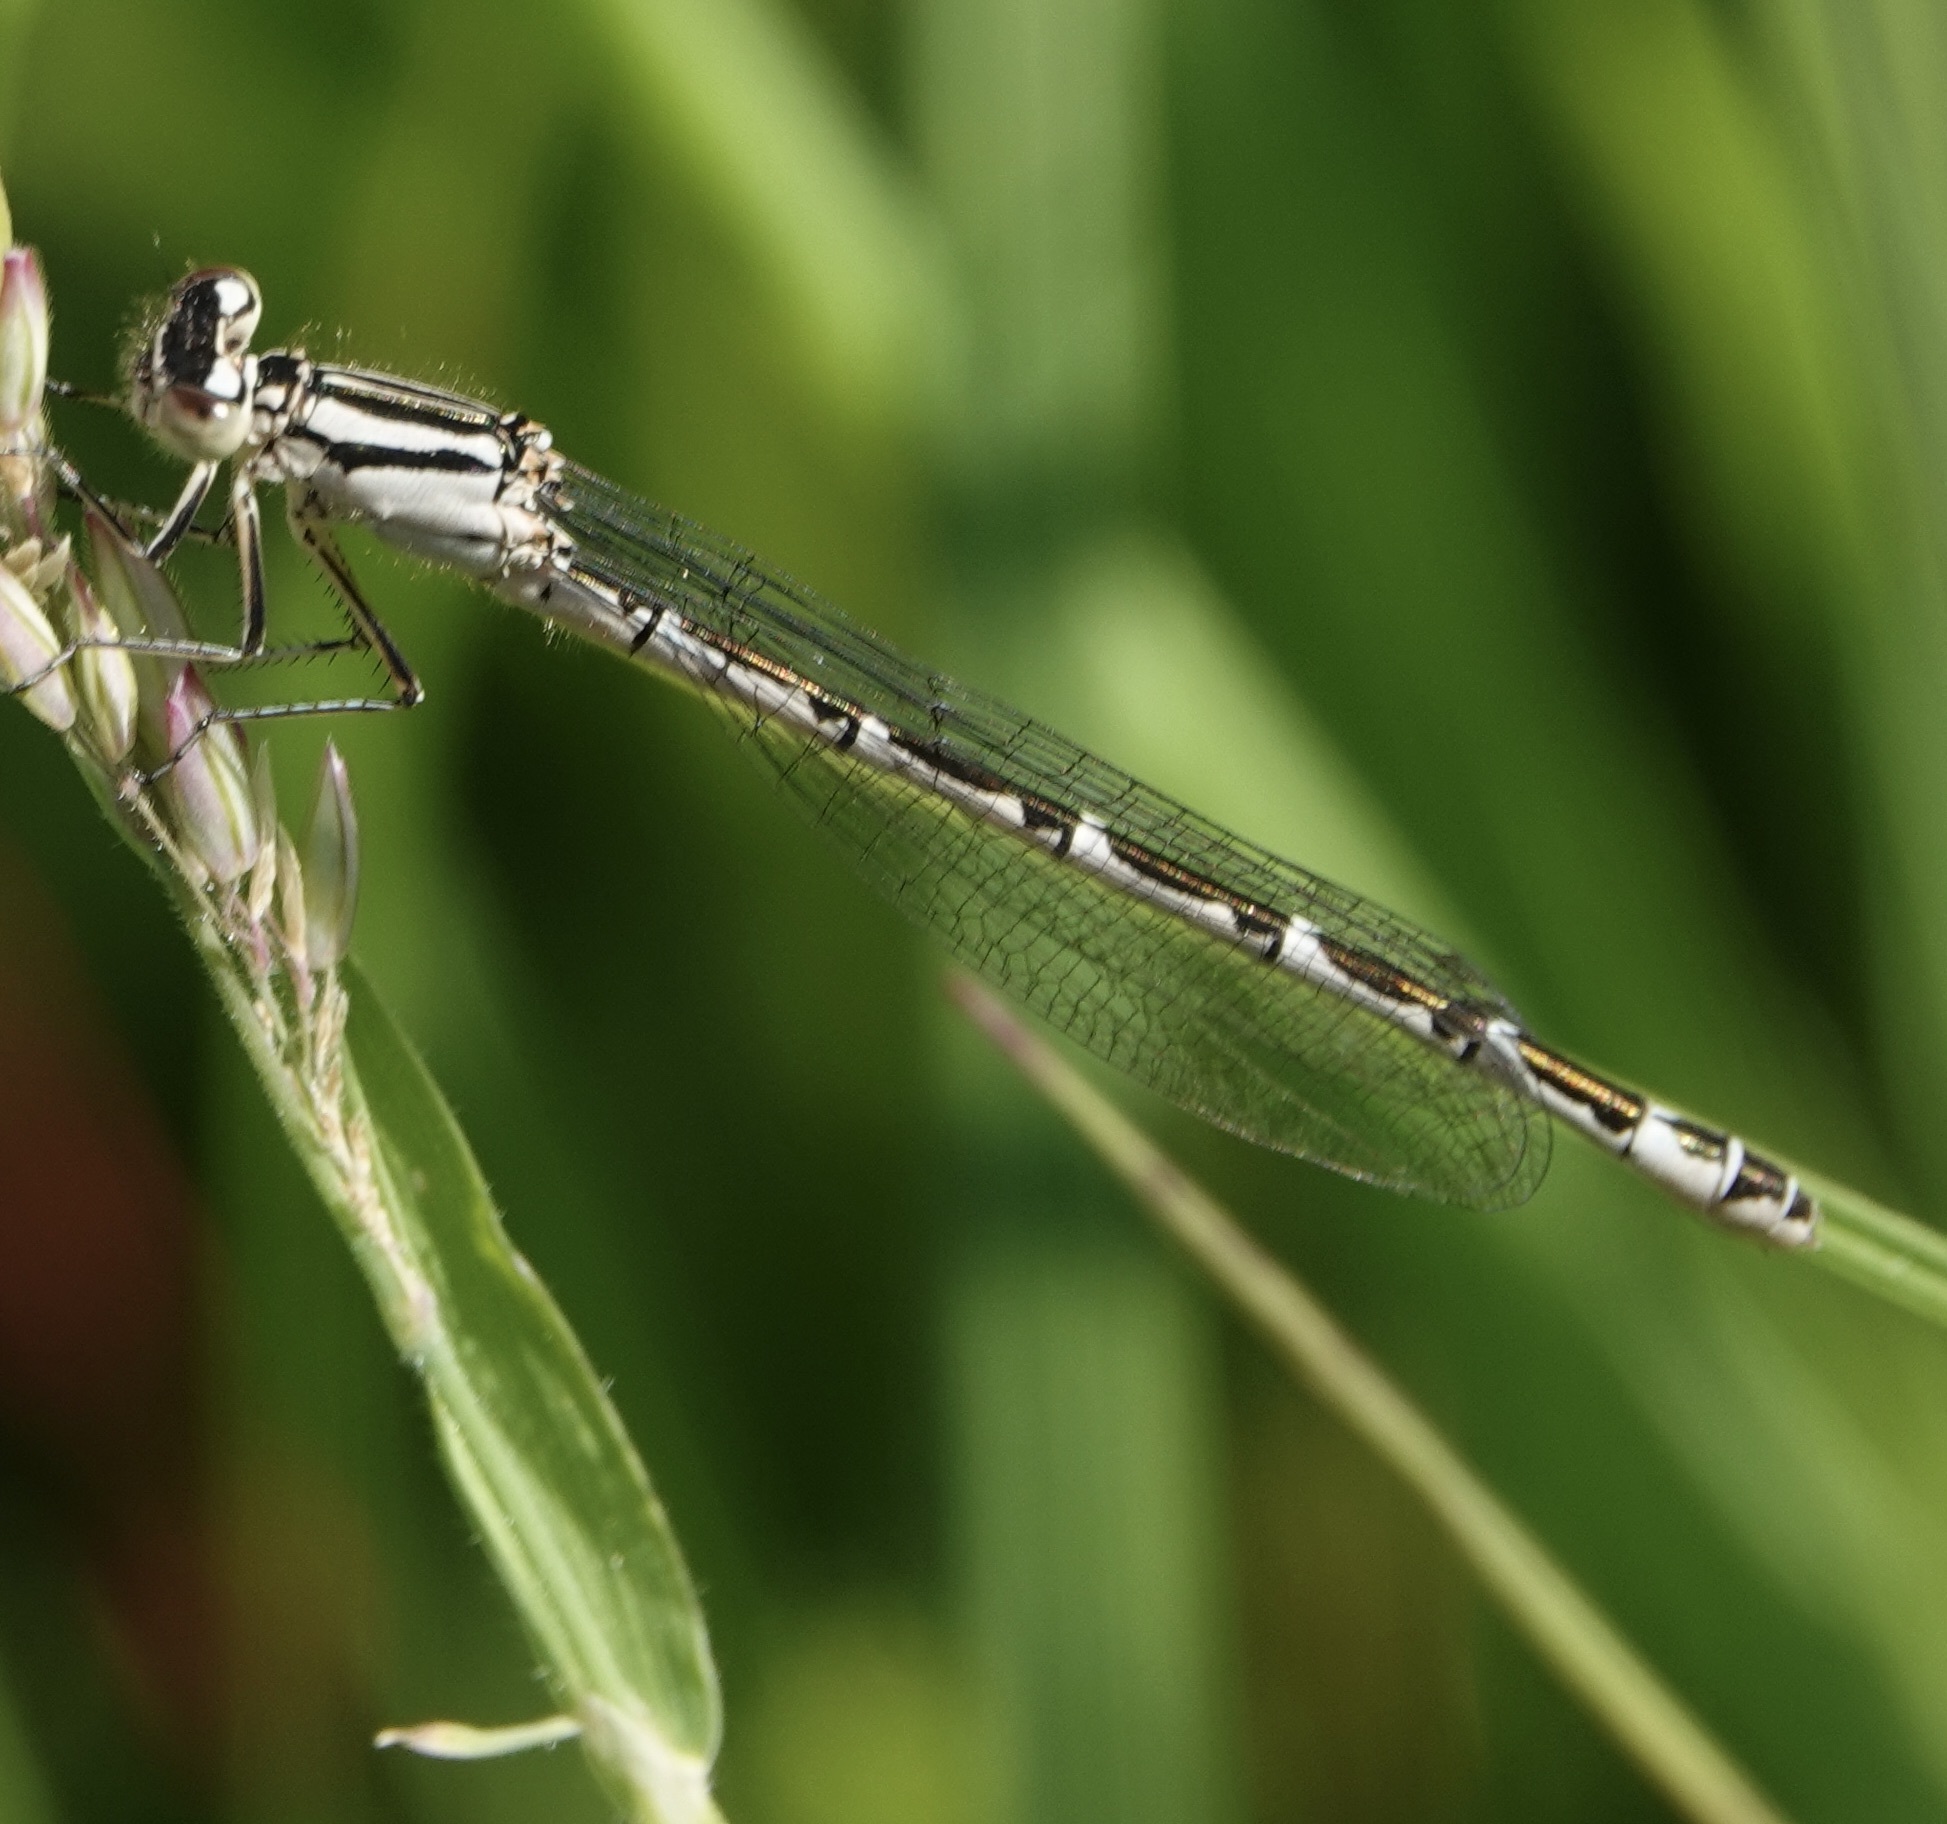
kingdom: Animalia
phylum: Arthropoda
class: Insecta
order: Odonata
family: Coenagrionidae
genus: Enallagma
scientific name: Enallagma cyathigerum
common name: Common blue damselfly
